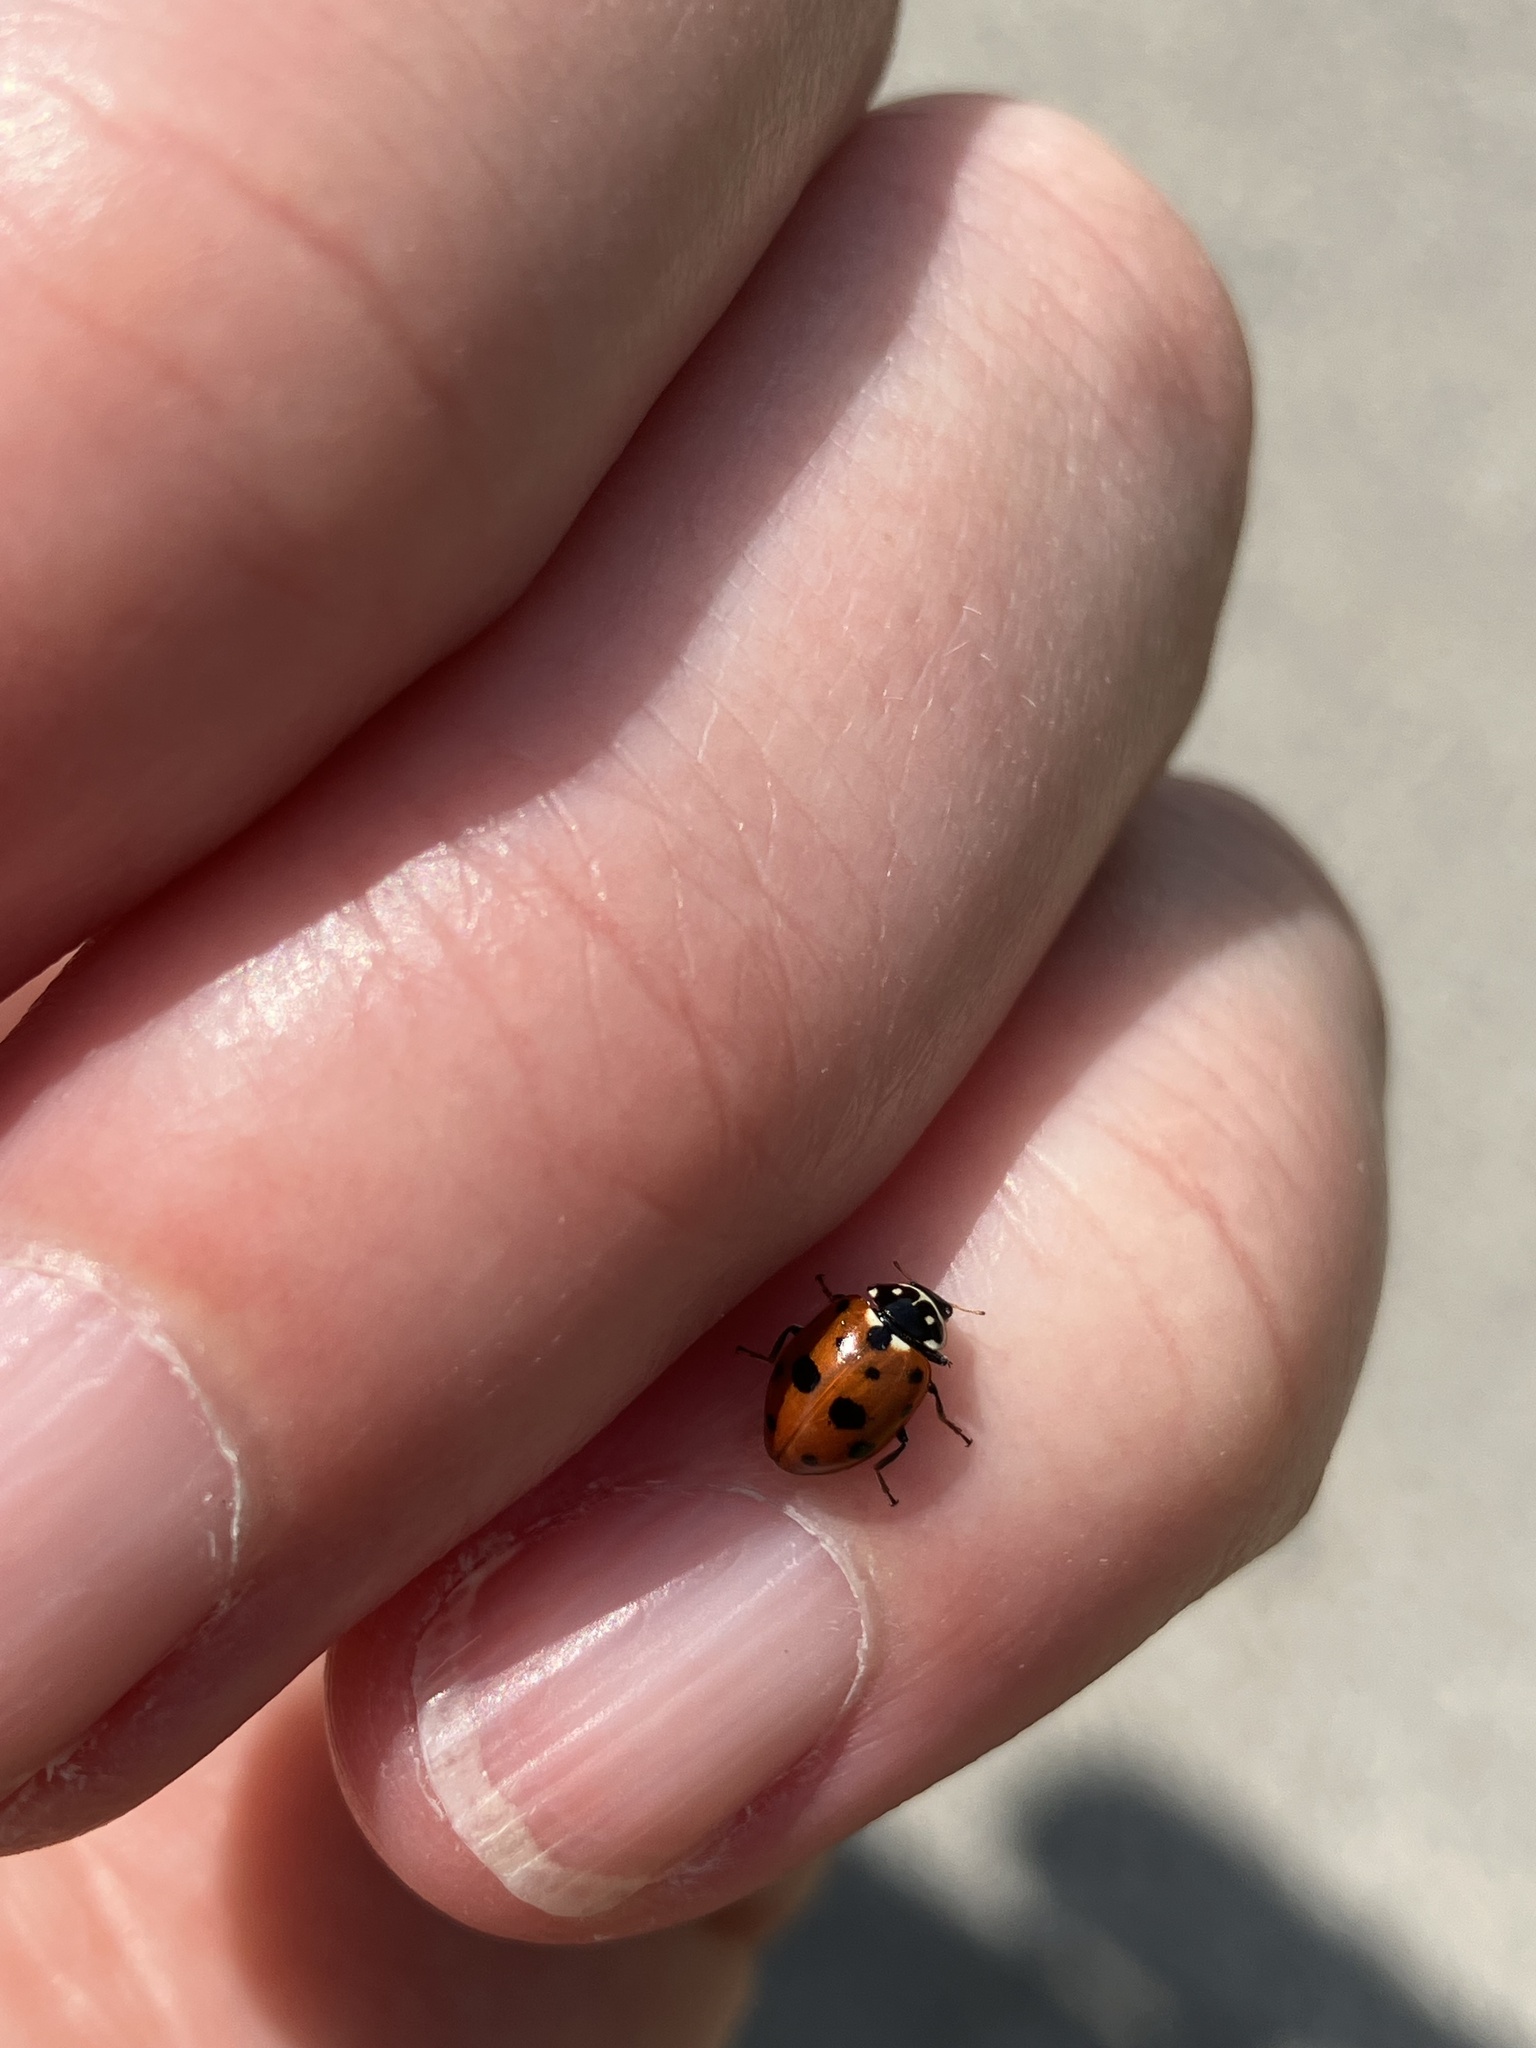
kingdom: Animalia
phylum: Arthropoda
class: Insecta
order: Coleoptera
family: Coccinellidae
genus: Hippodamia
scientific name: Hippodamia variegata
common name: Ladybird beetle
